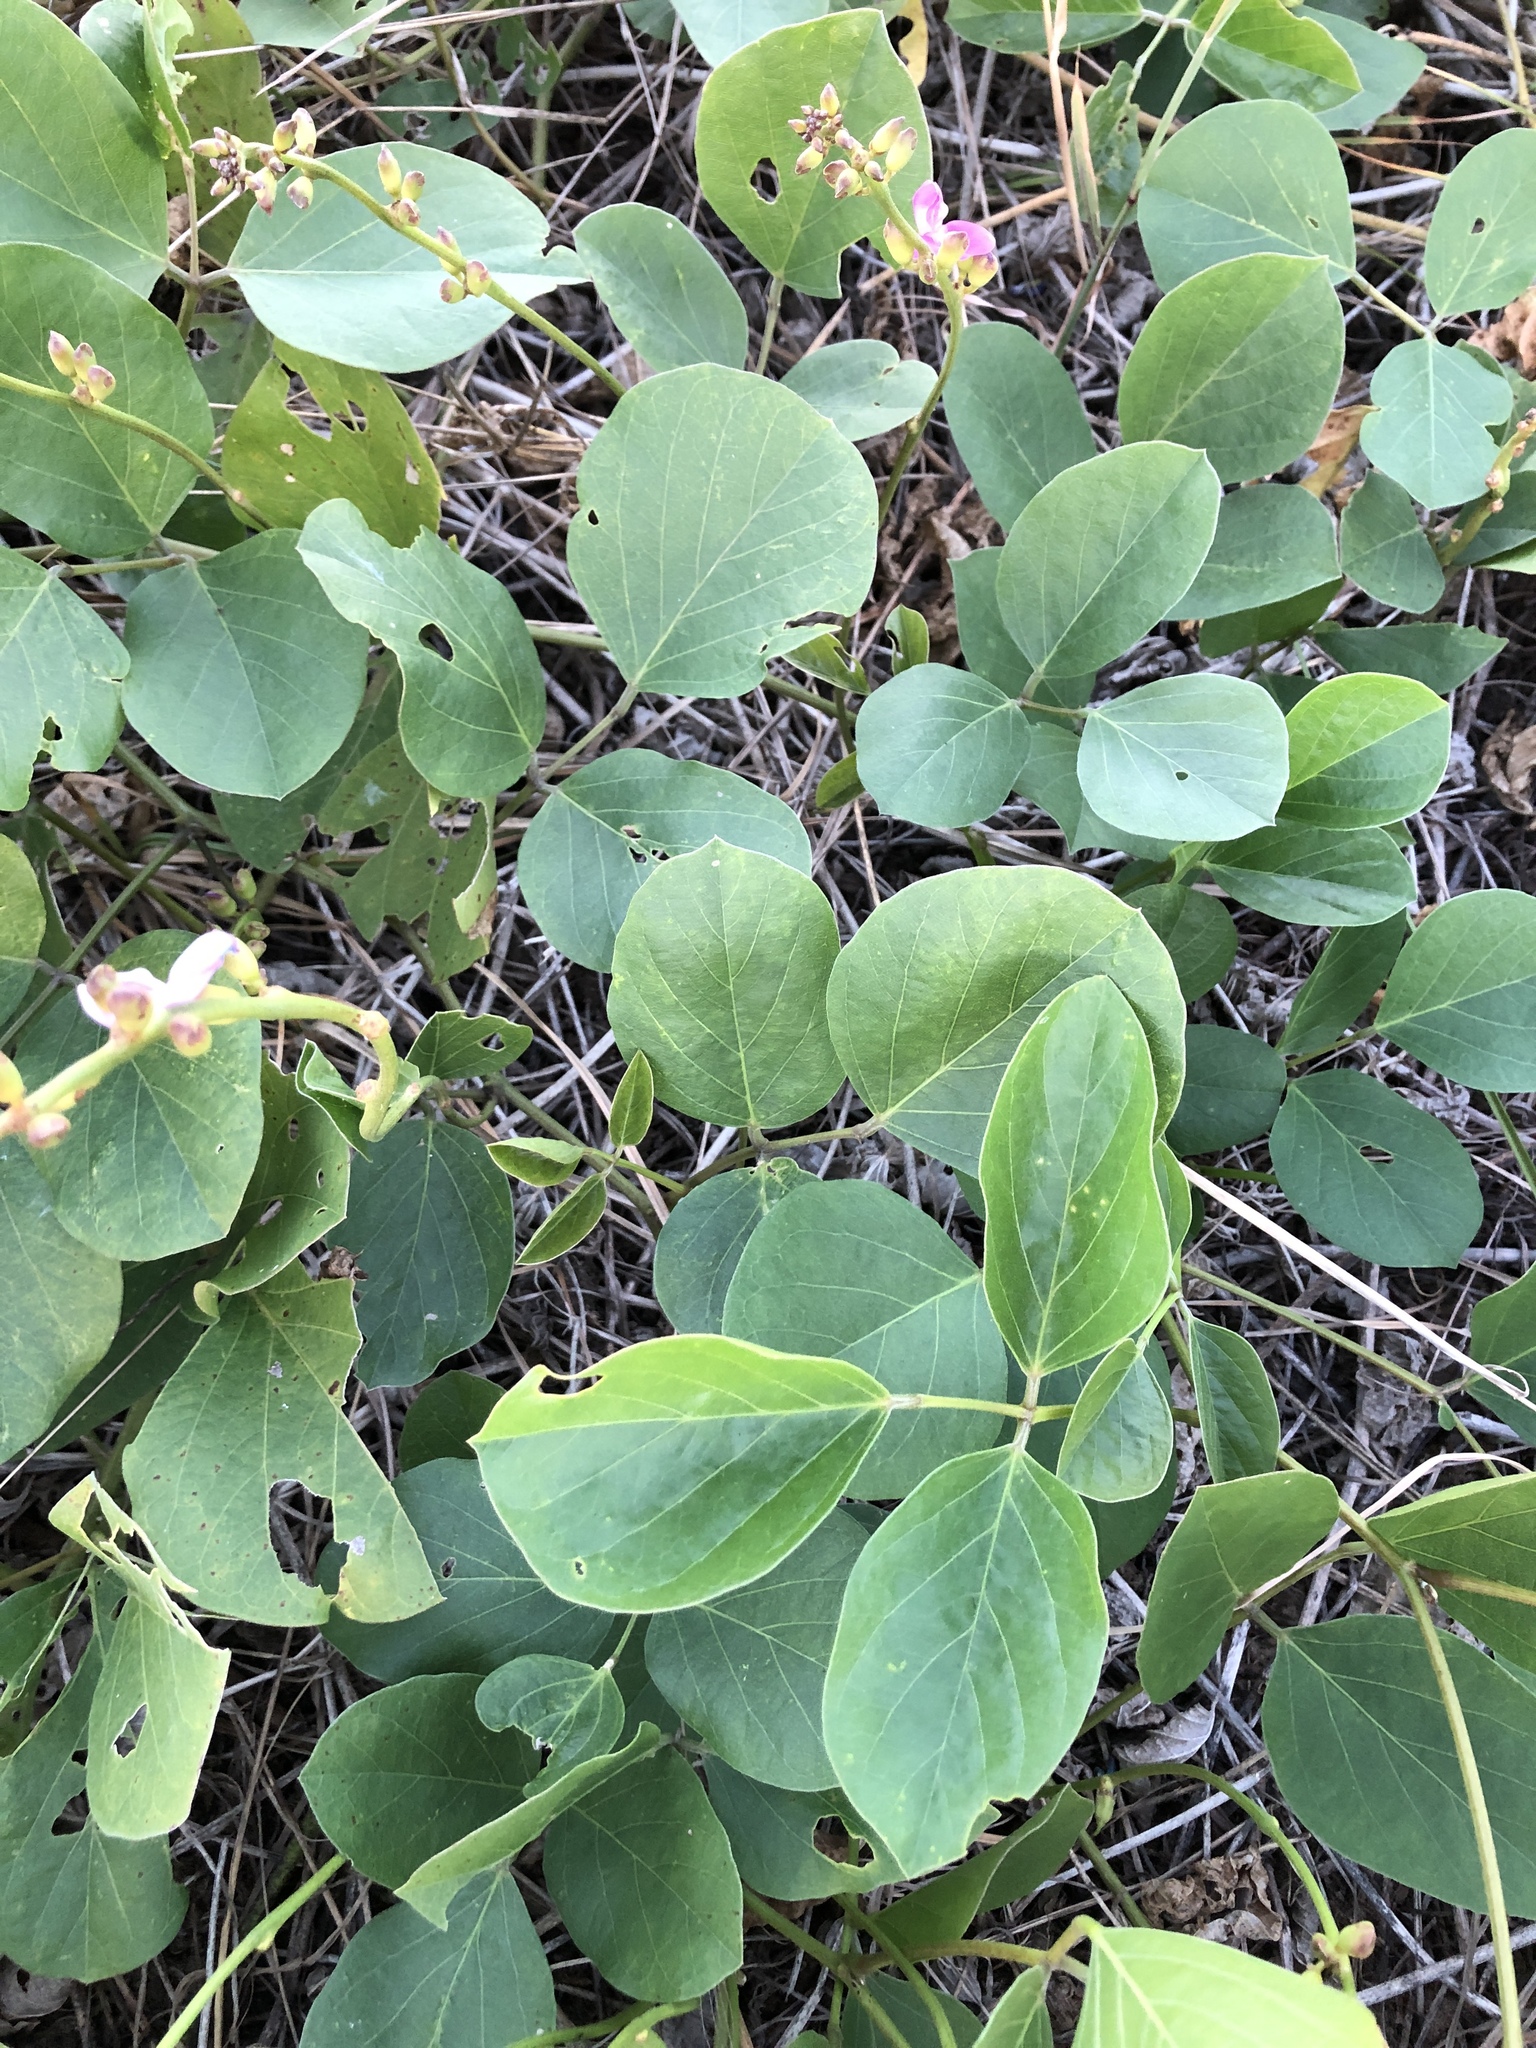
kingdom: Plantae
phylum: Tracheophyta
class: Magnoliopsida
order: Fabales
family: Fabaceae
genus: Canavalia
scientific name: Canavalia rosea
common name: Beach-bean
